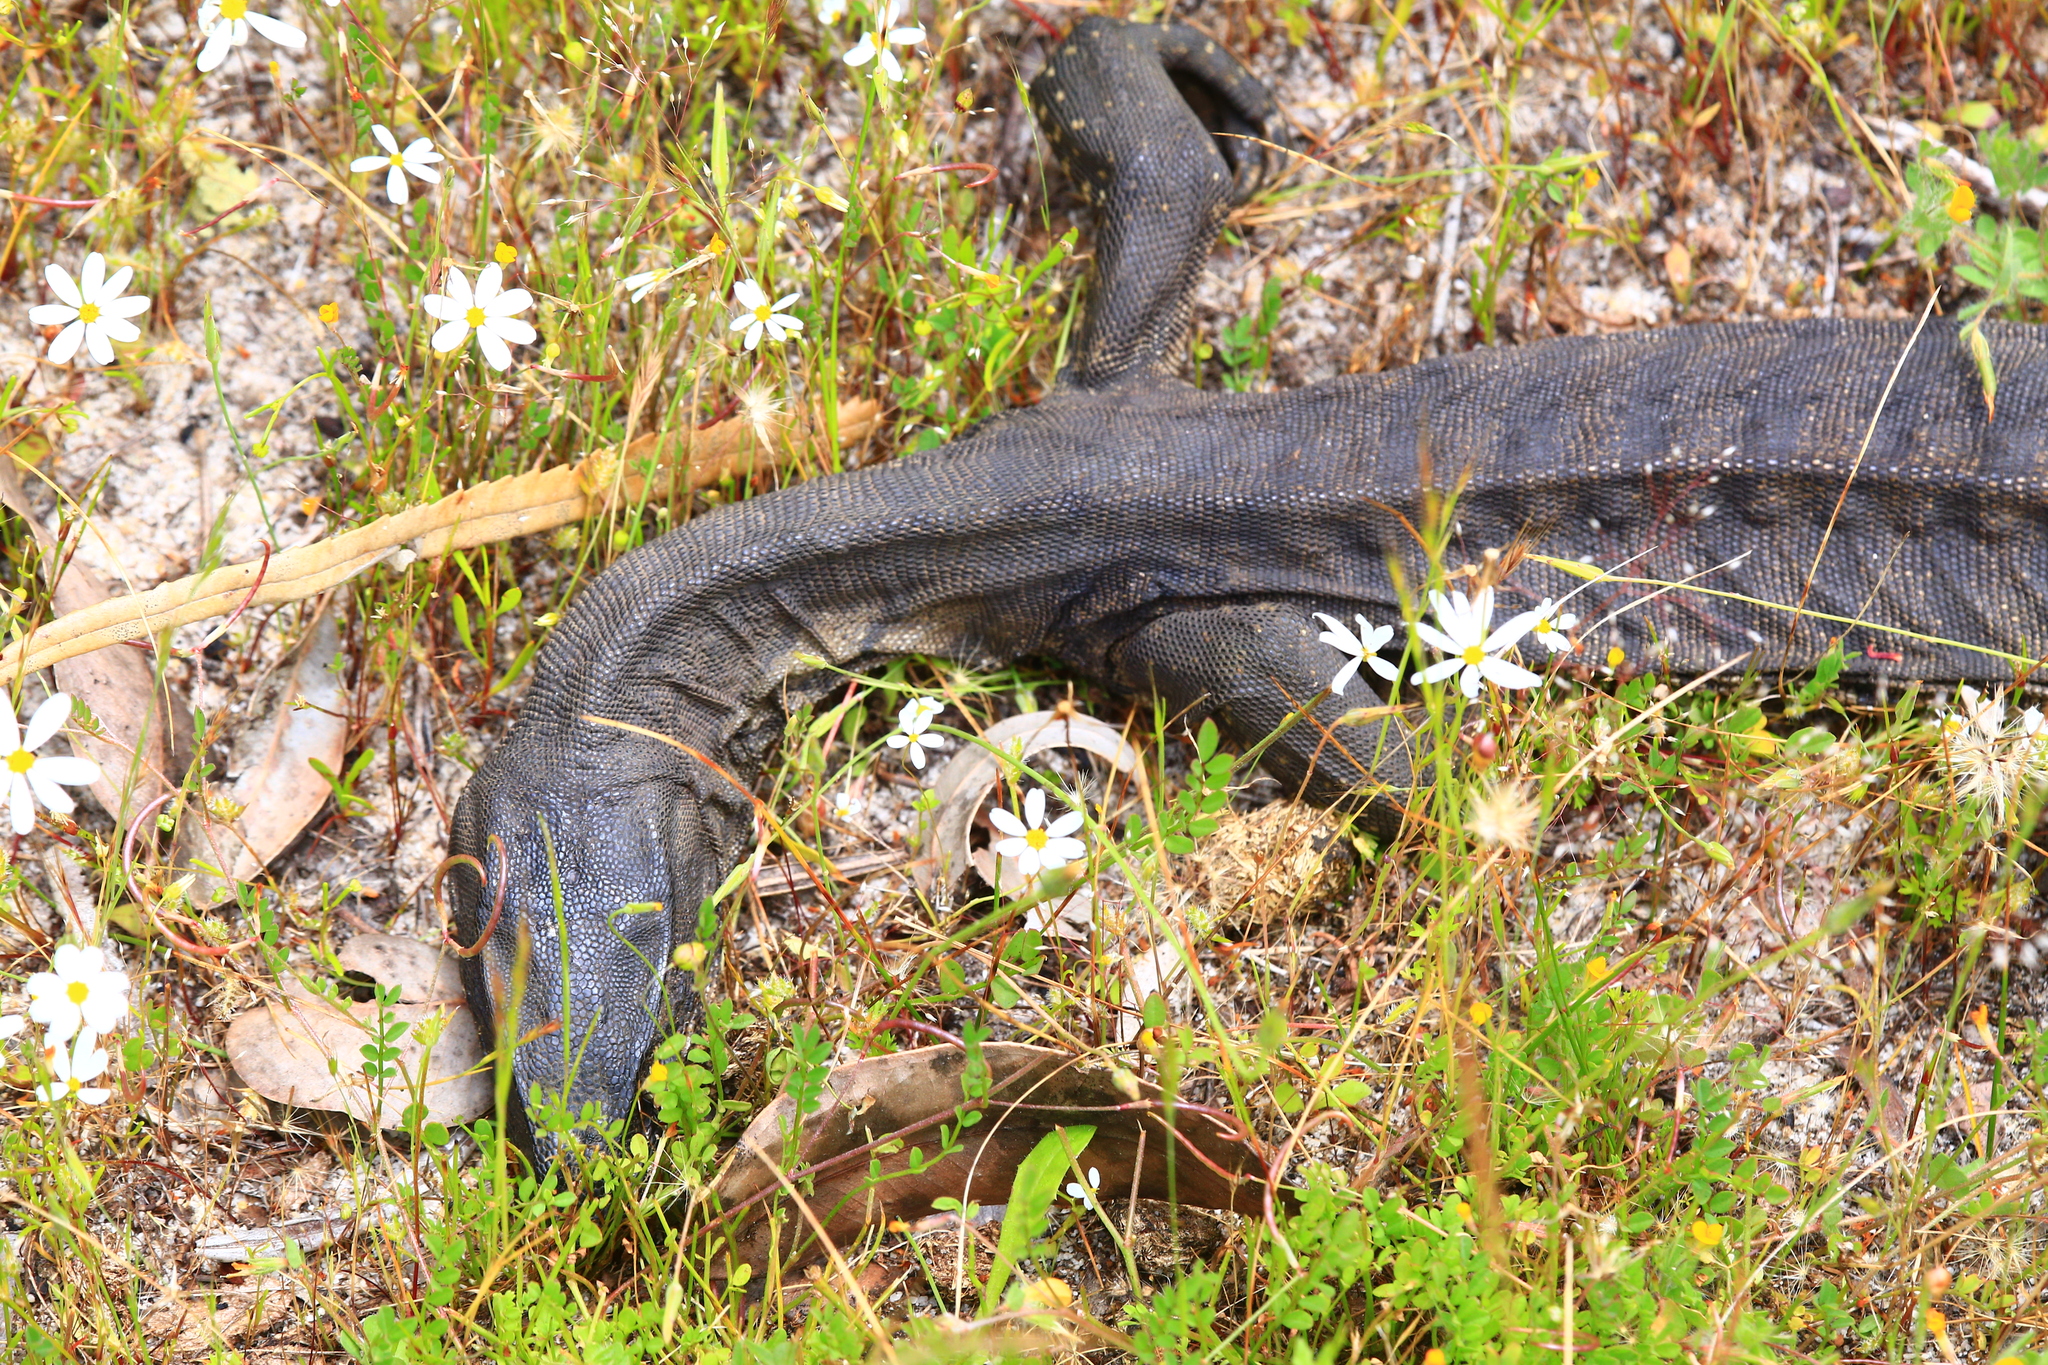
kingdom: Animalia
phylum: Chordata
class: Squamata
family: Varanidae
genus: Varanus
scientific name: Varanus rosenbergi
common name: Heath monitor
